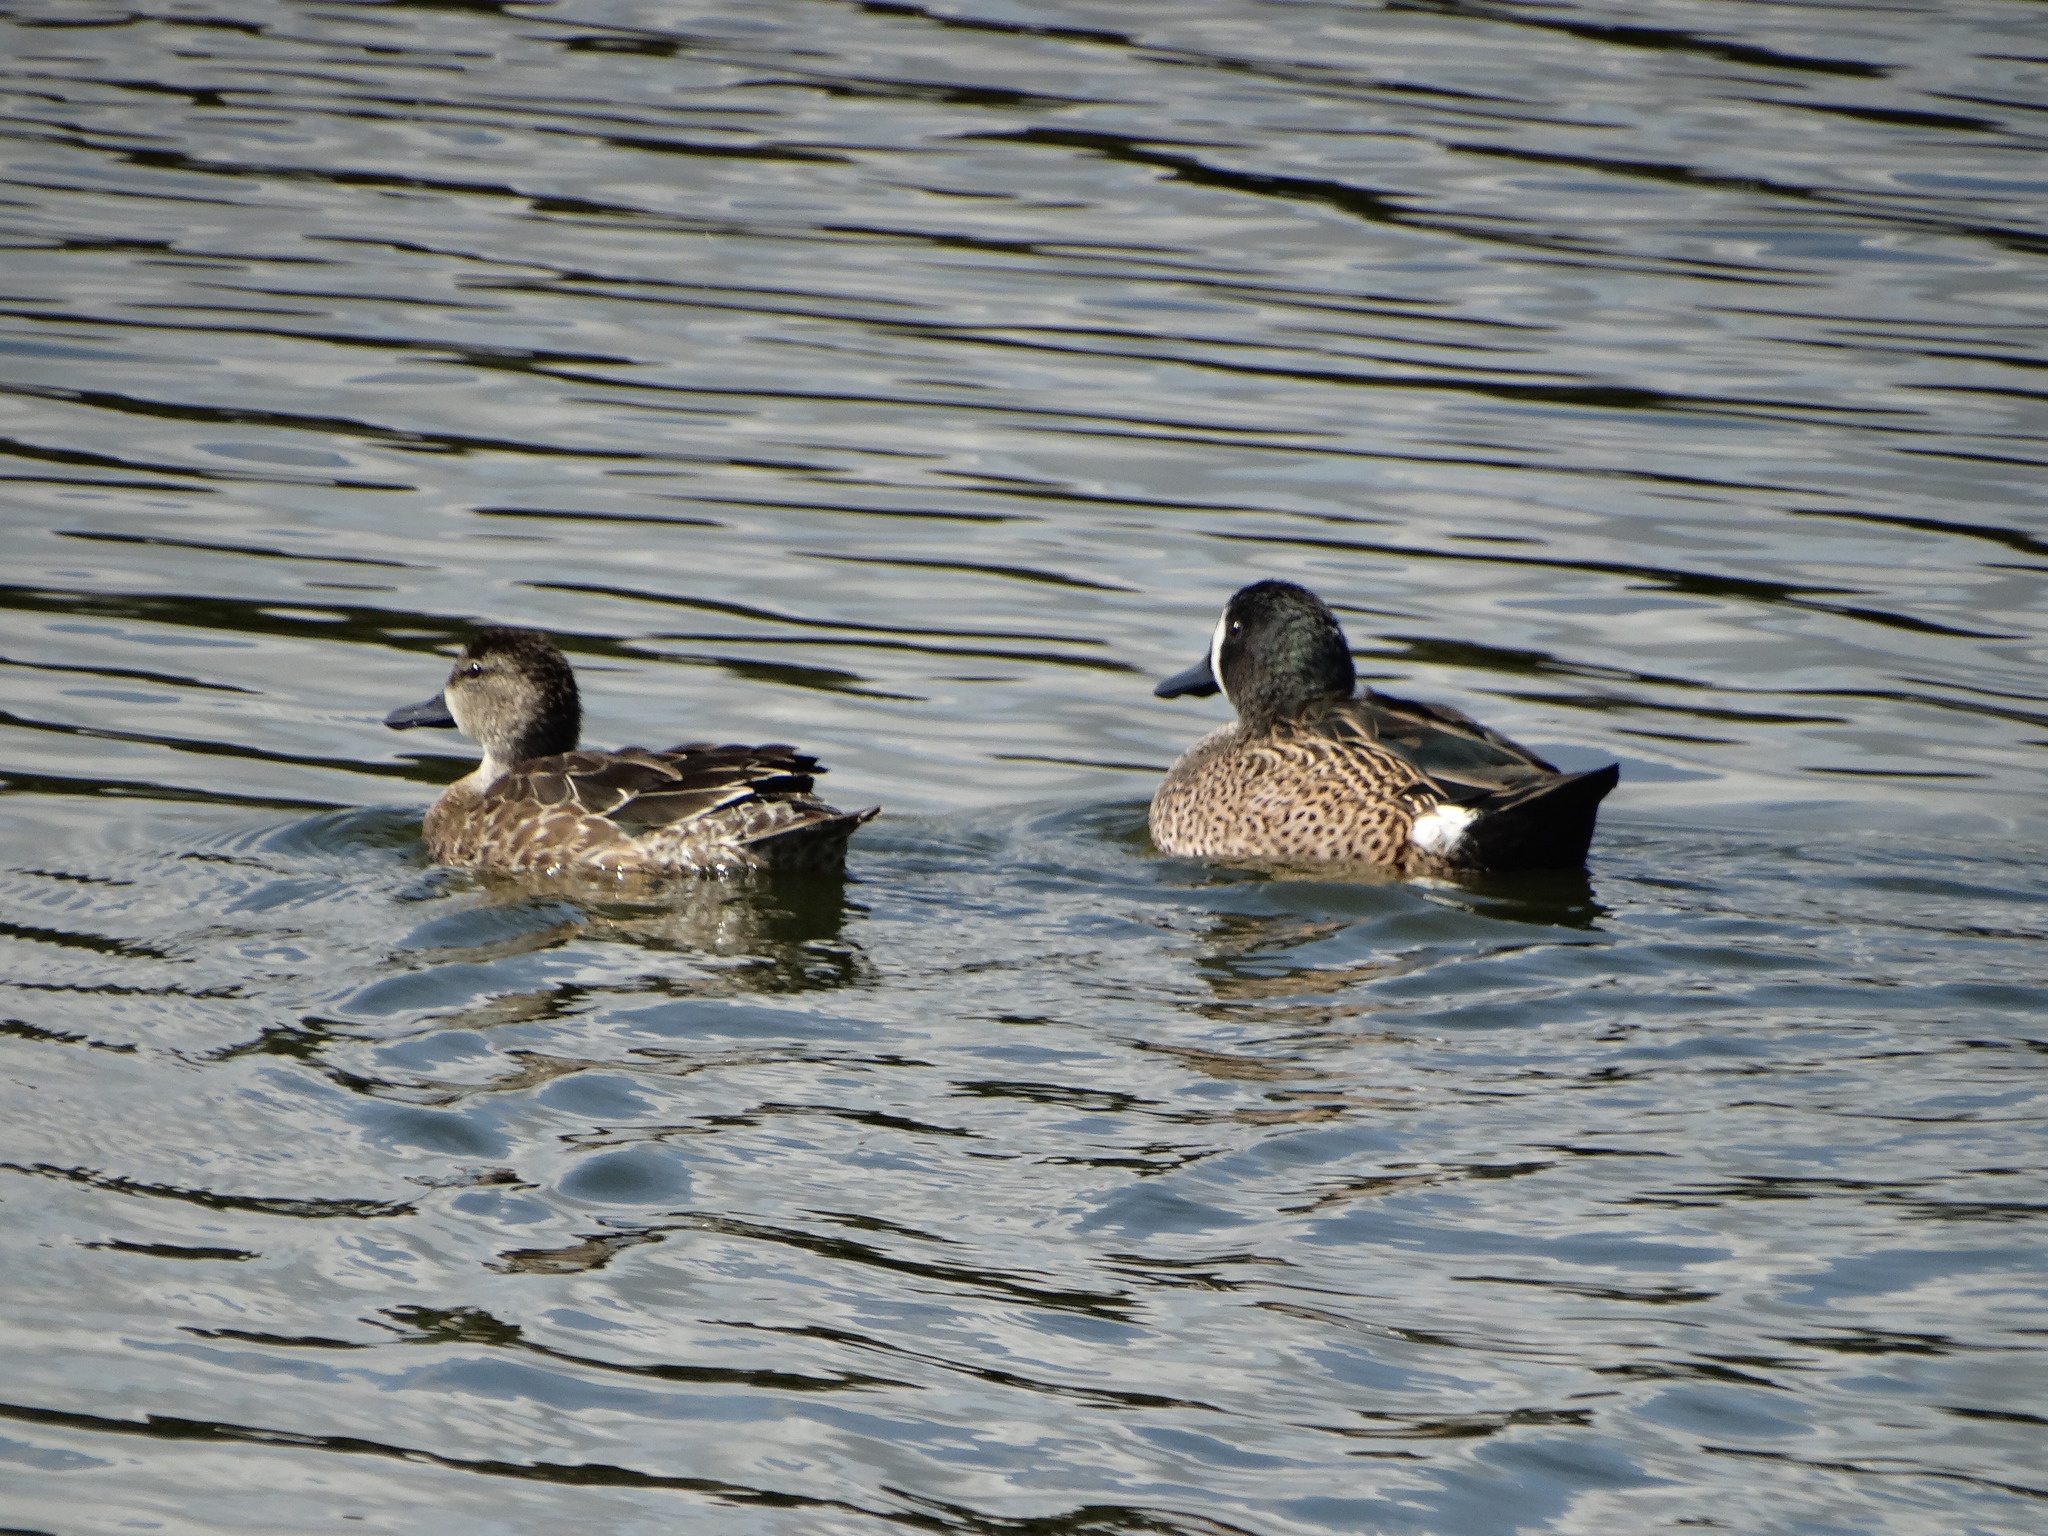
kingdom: Animalia
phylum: Chordata
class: Aves
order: Anseriformes
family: Anatidae
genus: Spatula
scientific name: Spatula discors
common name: Blue-winged teal
